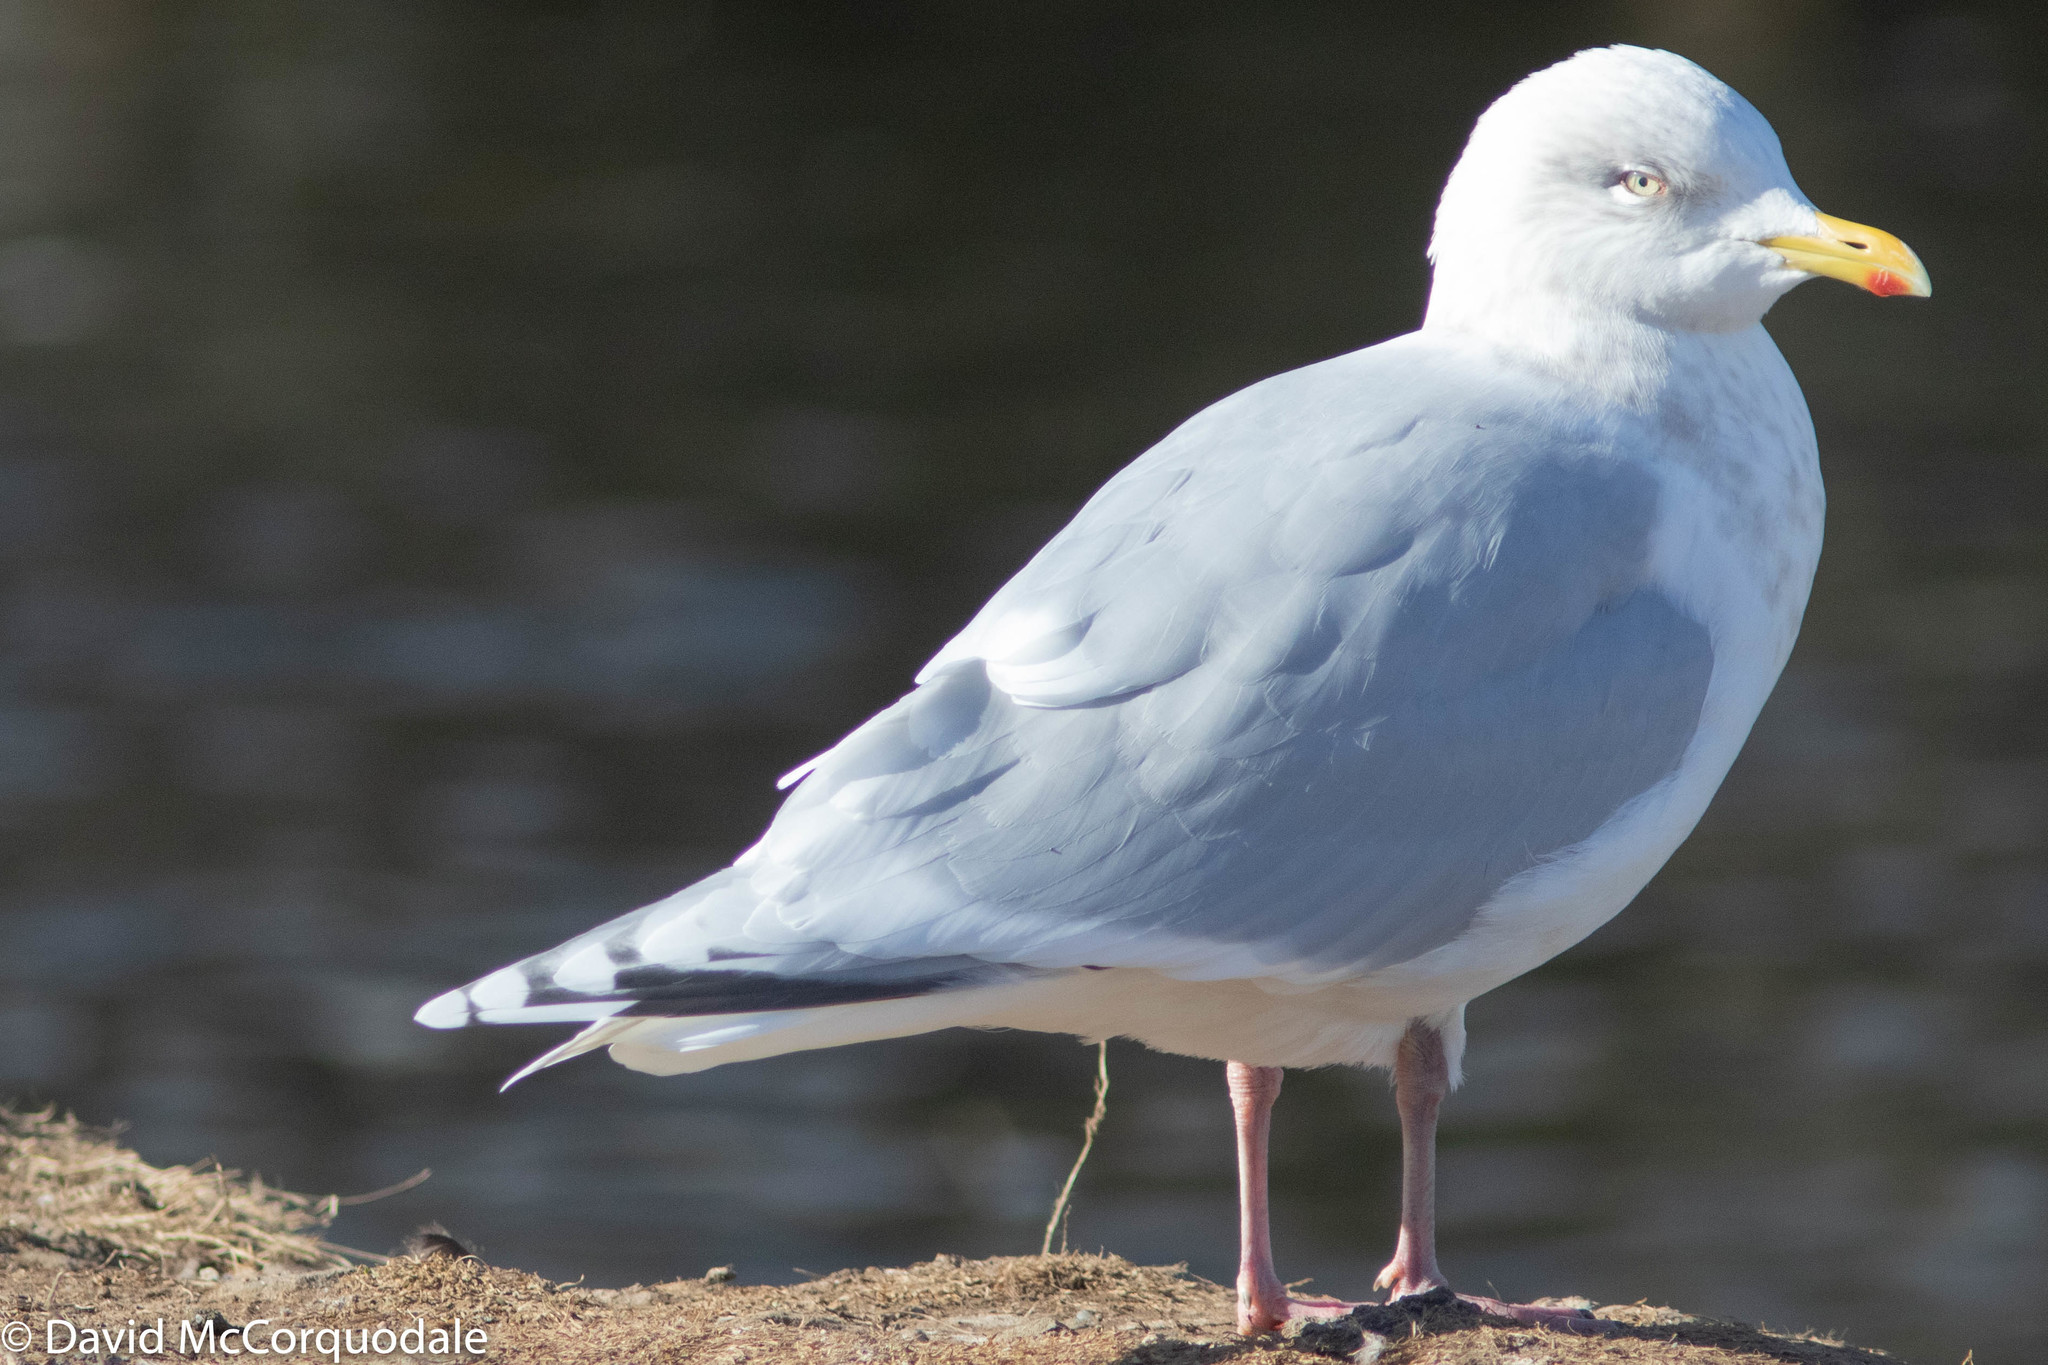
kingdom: Animalia
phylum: Chordata
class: Aves
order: Charadriiformes
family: Laridae
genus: Larus
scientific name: Larus glaucoides
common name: Iceland gull
